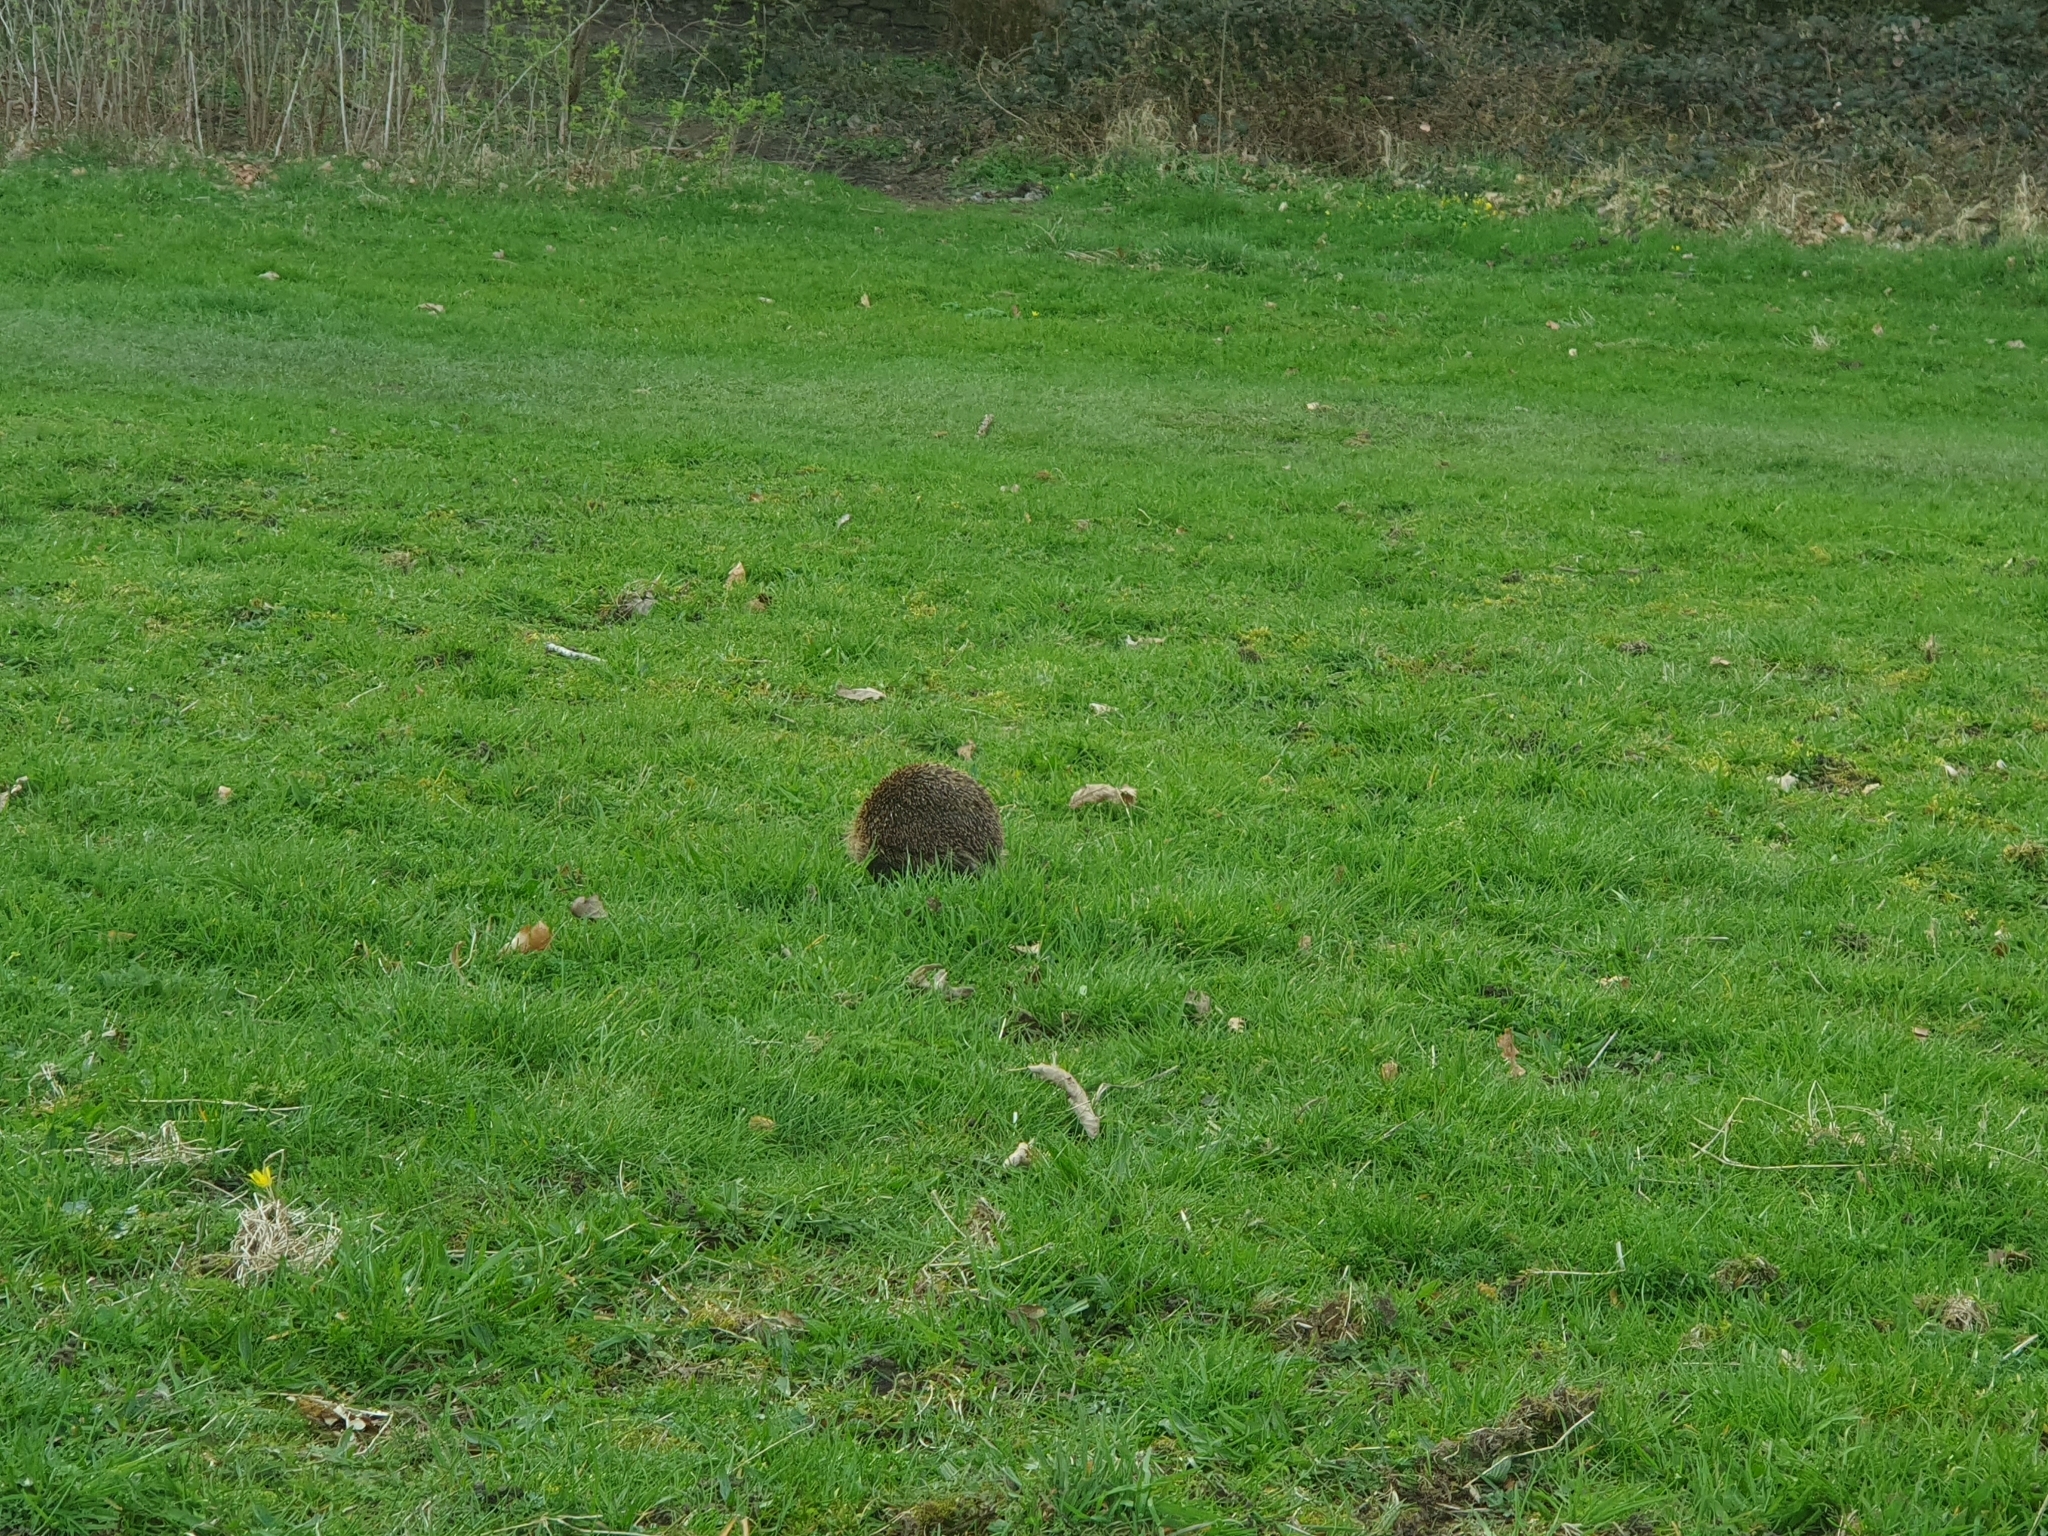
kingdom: Animalia
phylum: Chordata
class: Mammalia
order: Erinaceomorpha
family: Erinaceidae
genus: Erinaceus
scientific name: Erinaceus europaeus
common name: West european hedgehog
